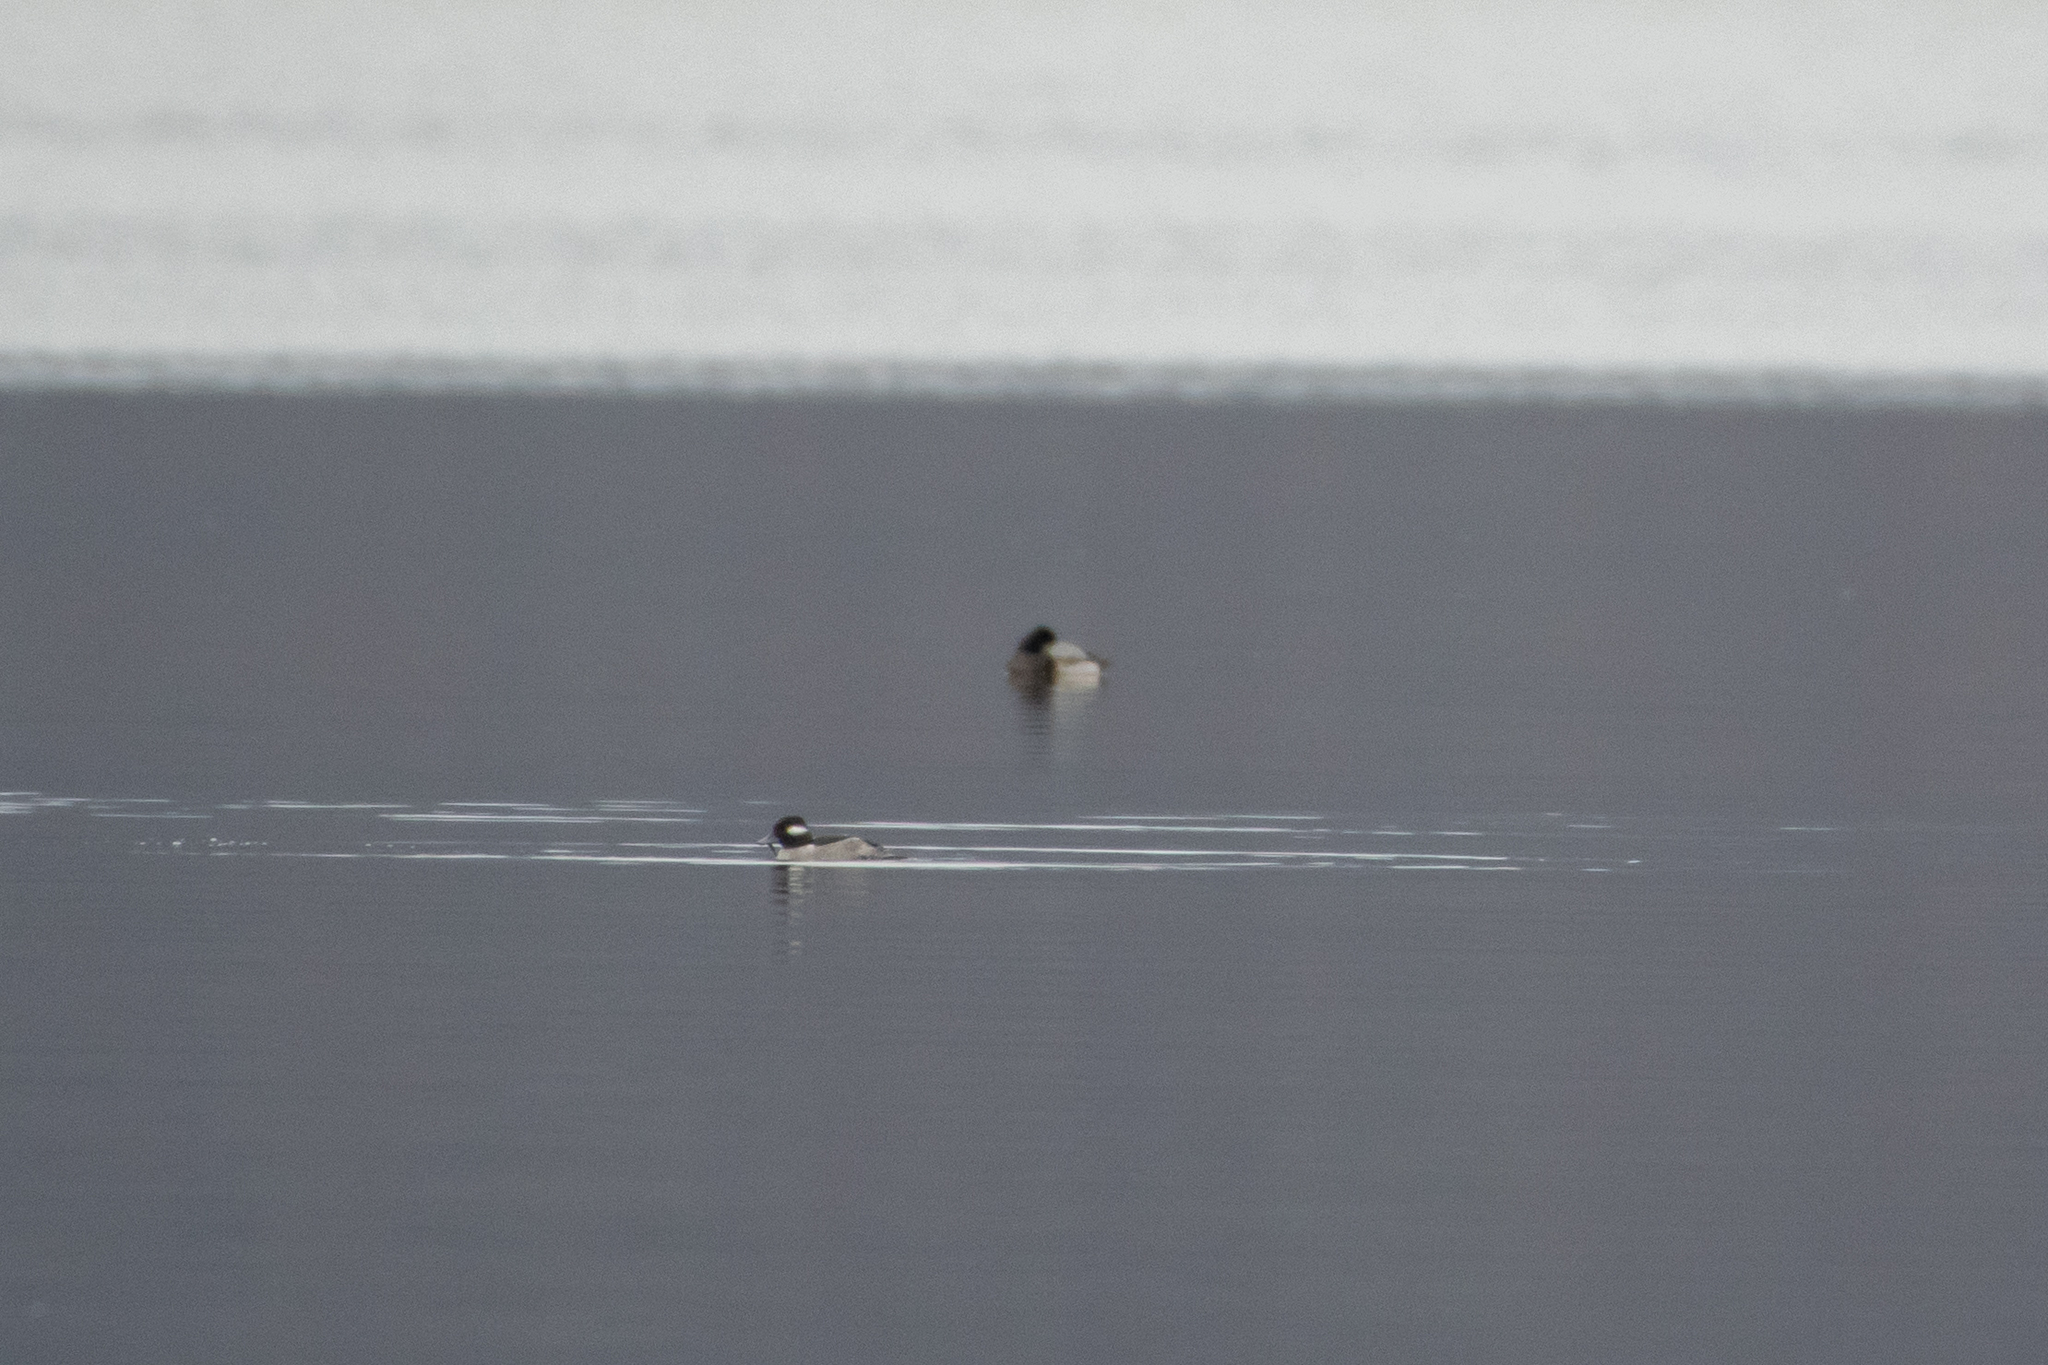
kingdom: Animalia
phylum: Chordata
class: Aves
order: Anseriformes
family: Anatidae
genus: Bucephala
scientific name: Bucephala albeola
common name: Bufflehead
